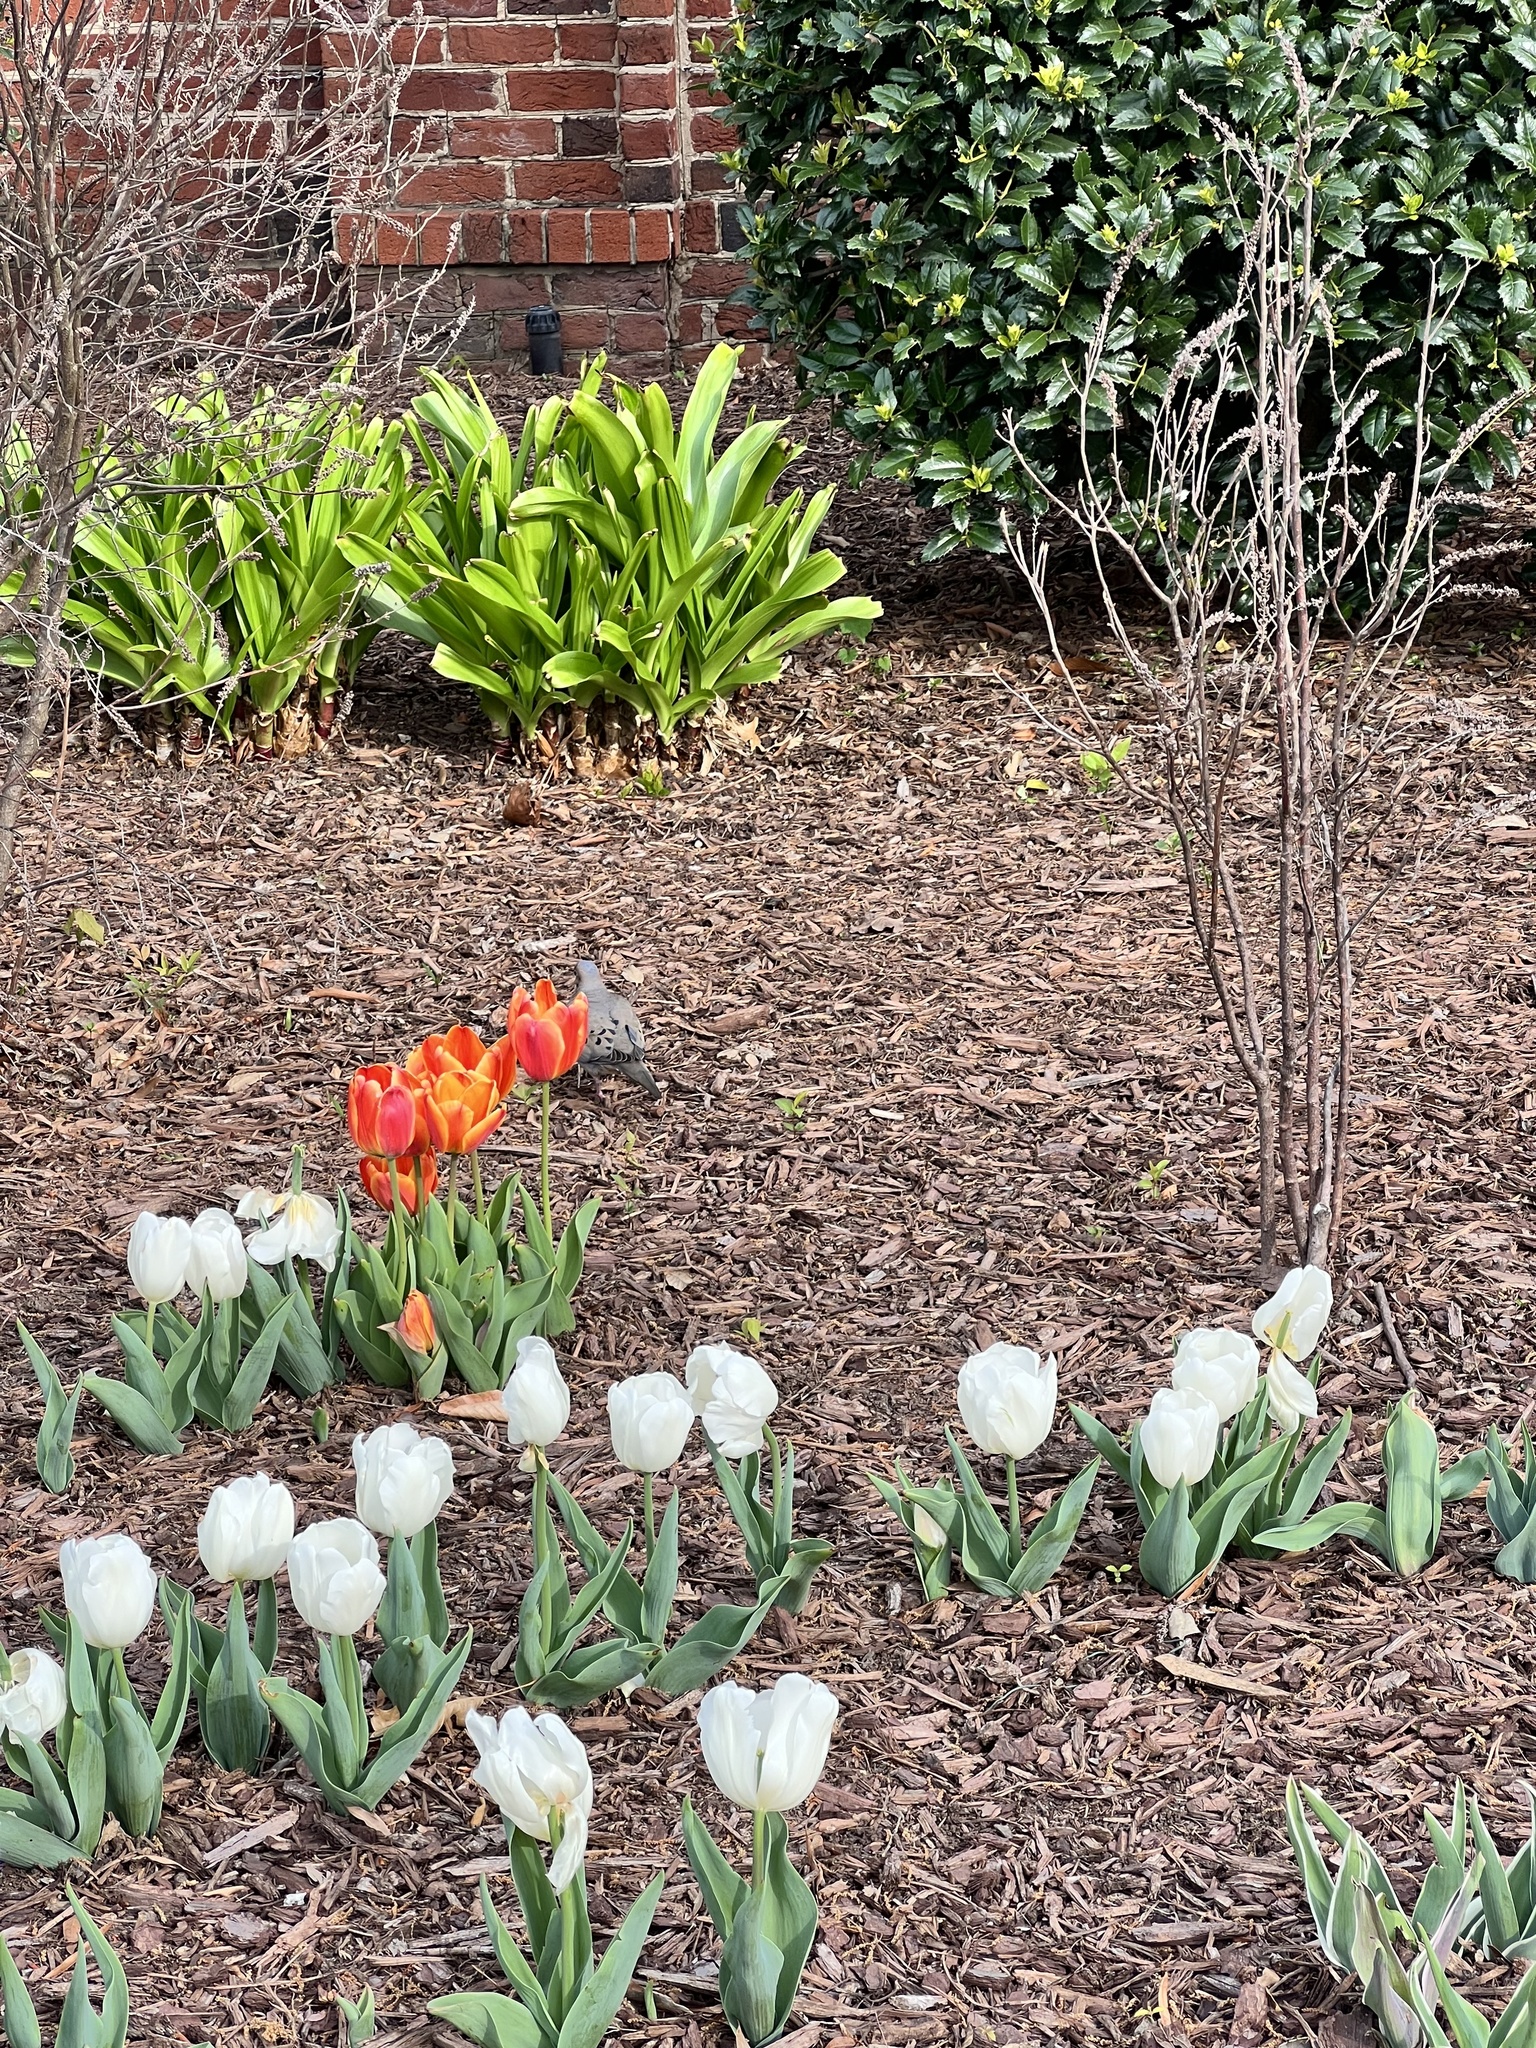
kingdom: Animalia
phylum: Chordata
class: Aves
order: Columbiformes
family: Columbidae
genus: Zenaida
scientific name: Zenaida macroura
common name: Mourning dove
